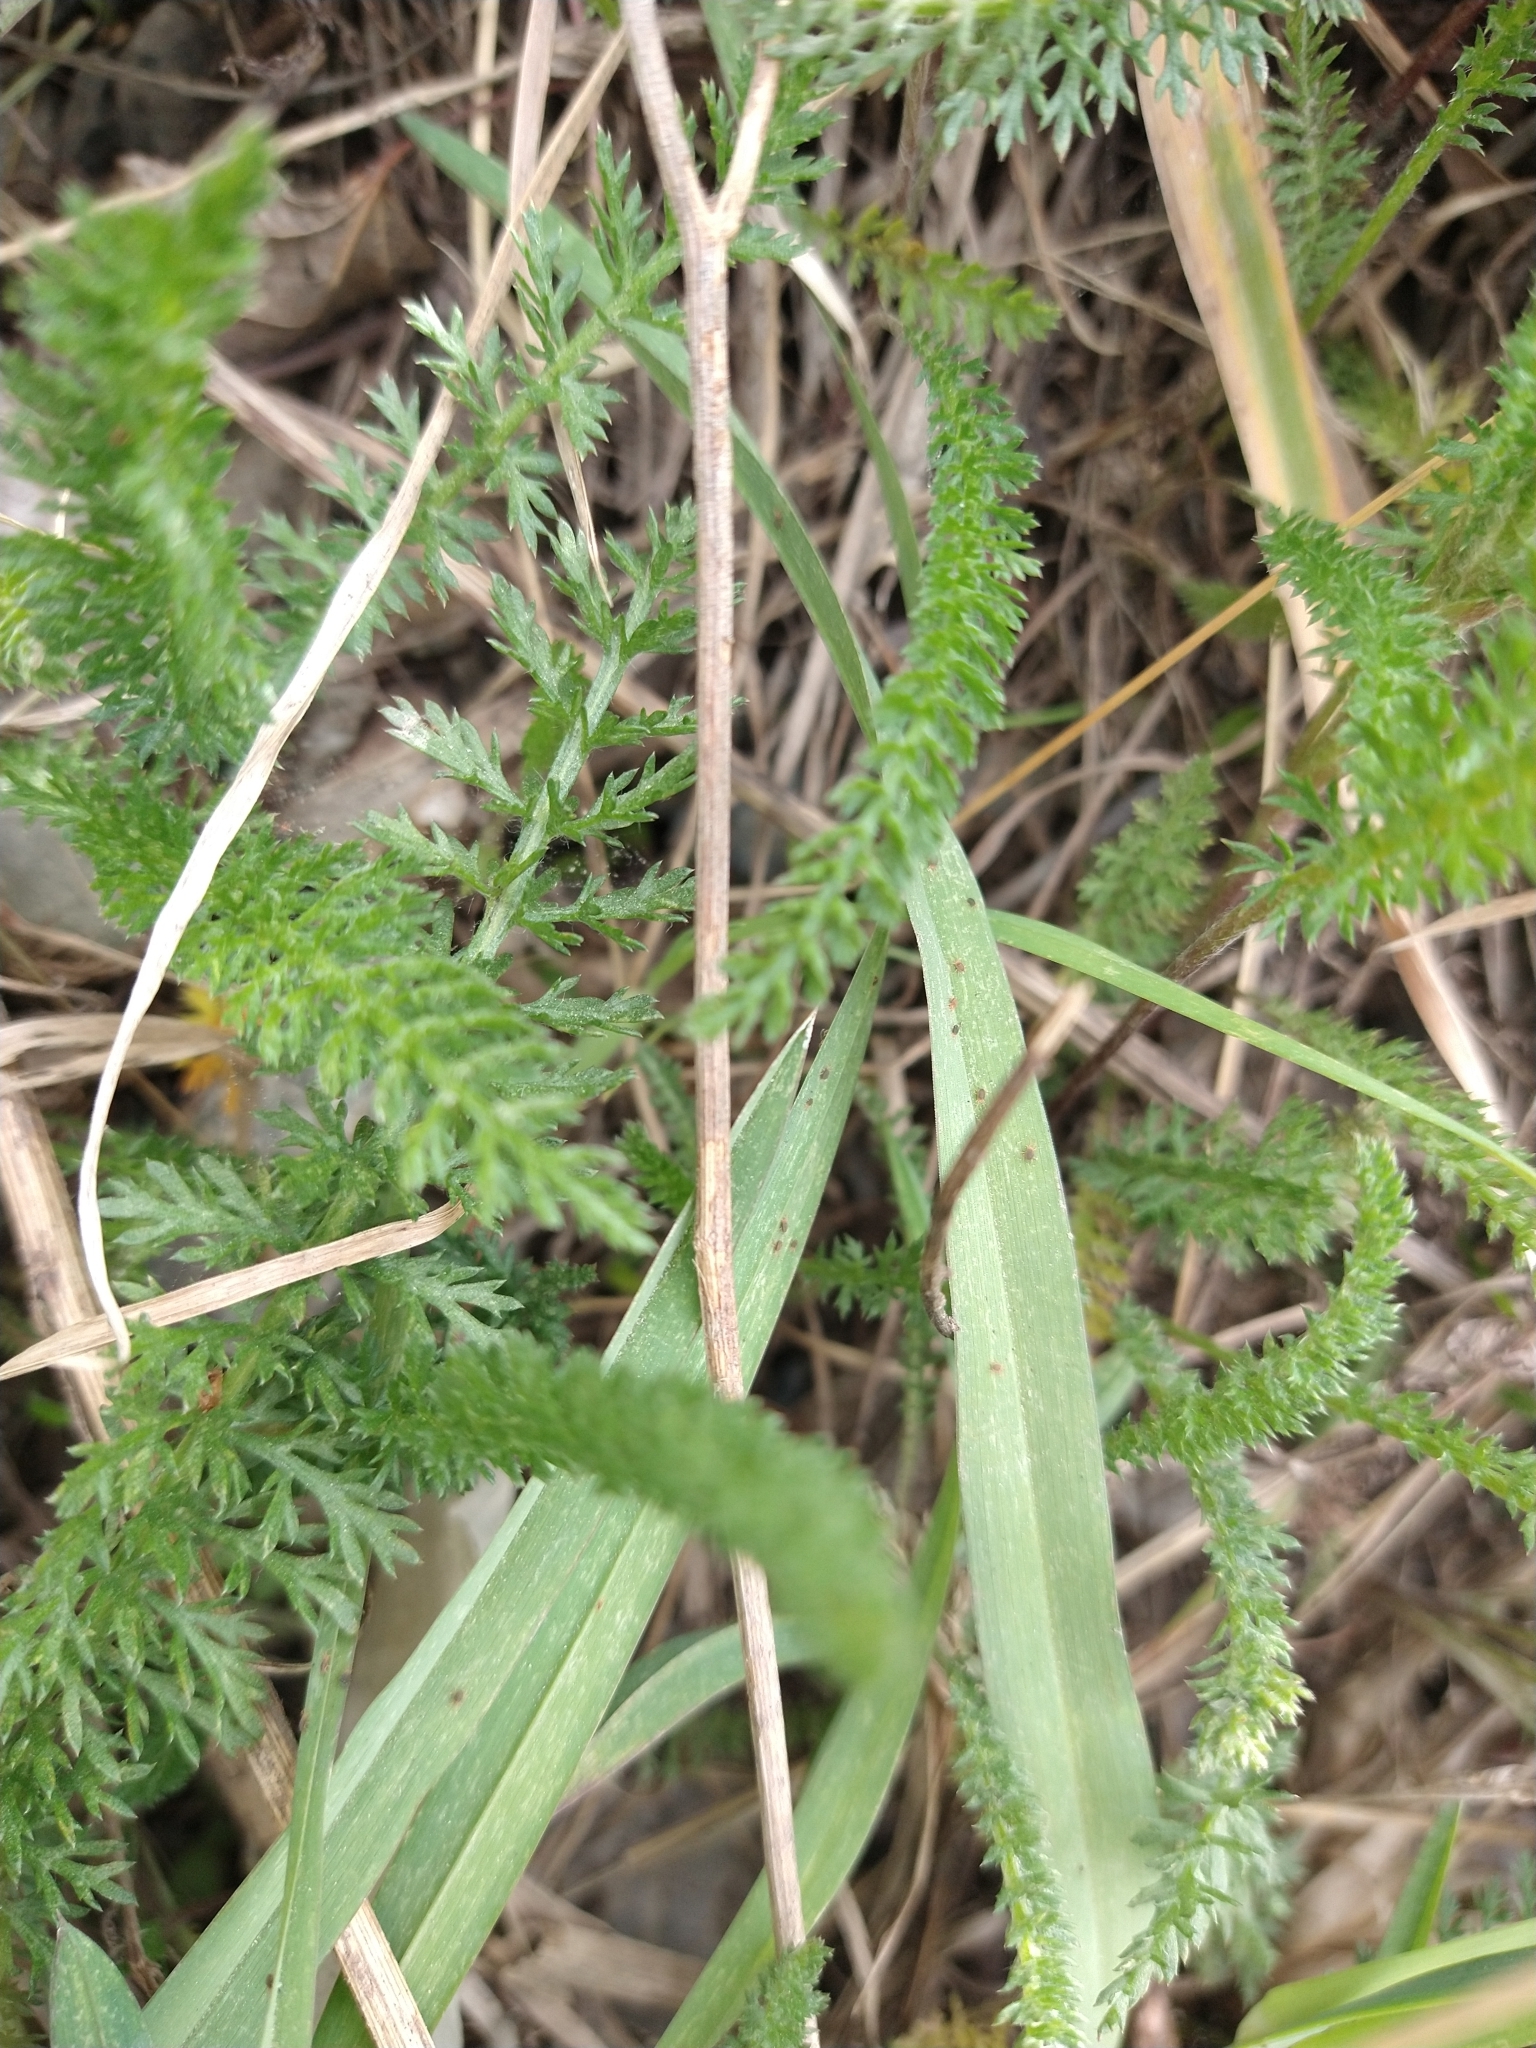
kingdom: Plantae
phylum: Tracheophyta
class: Magnoliopsida
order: Asterales
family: Asteraceae
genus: Achillea
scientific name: Achillea millefolium
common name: Yarrow
